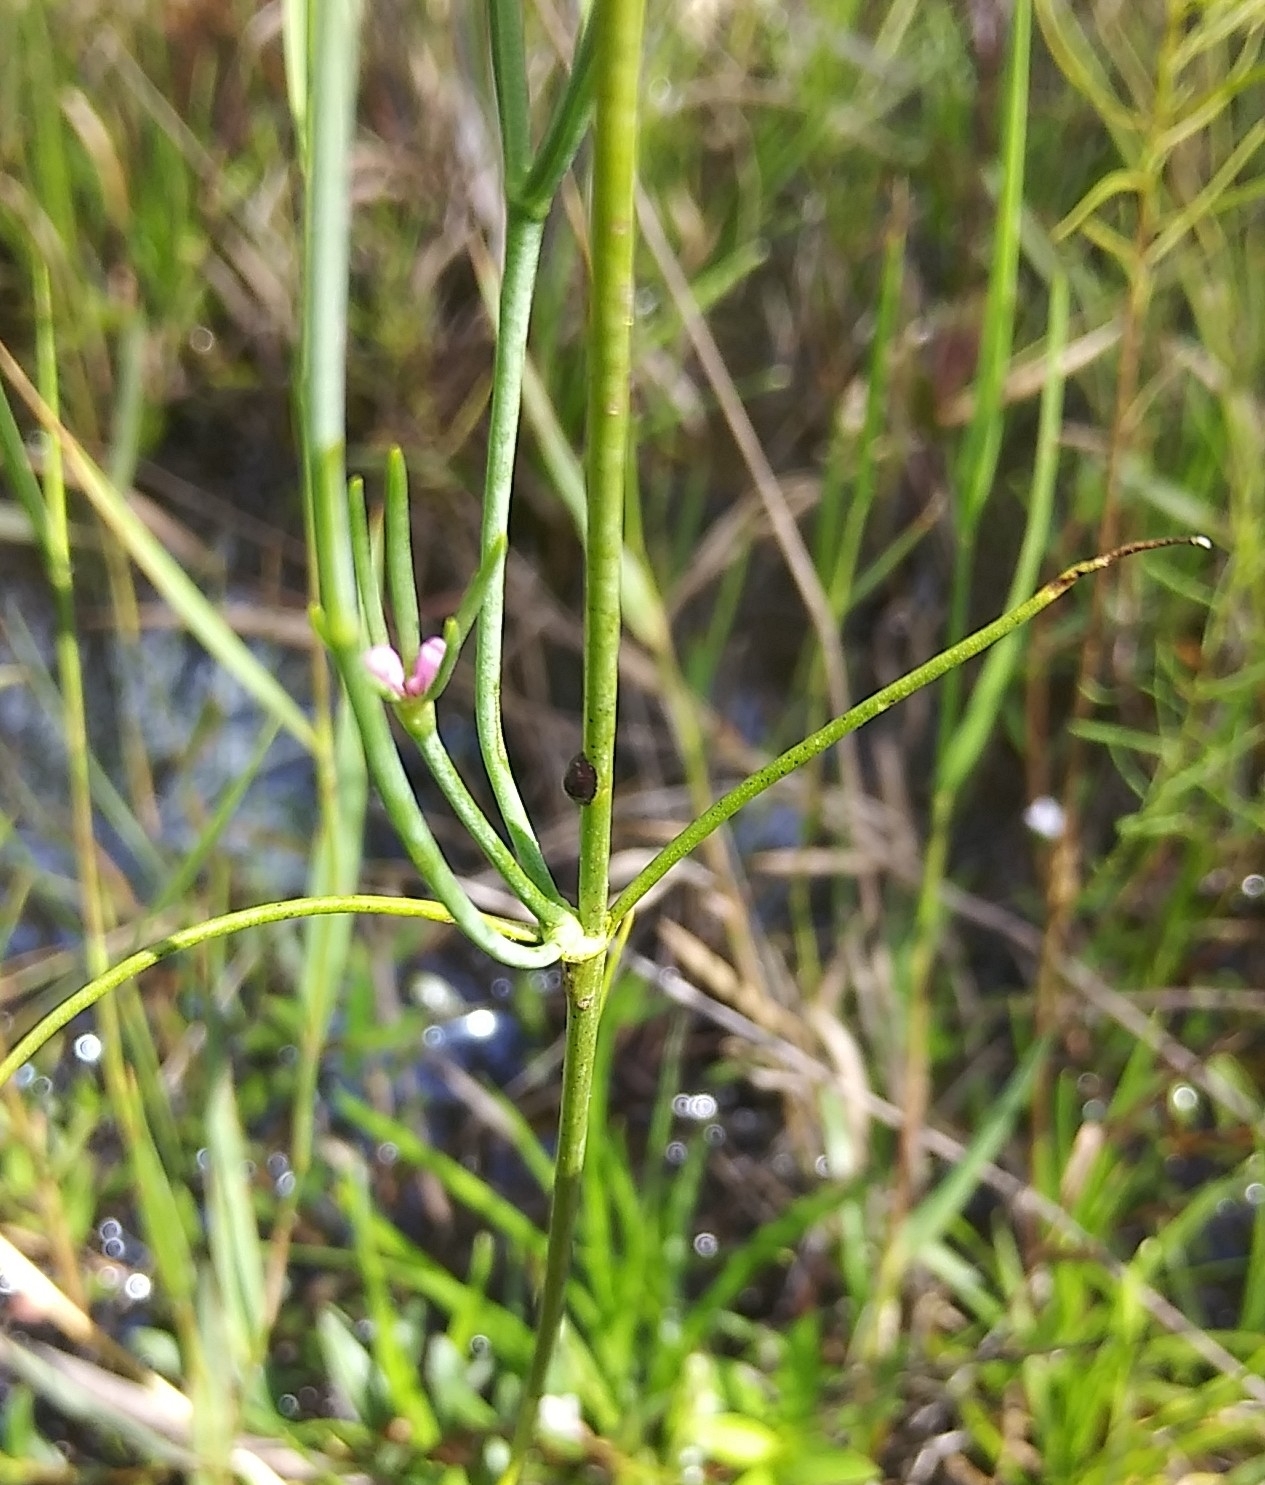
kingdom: Plantae
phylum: Tracheophyta
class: Magnoliopsida
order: Gentianales
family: Gentianaceae
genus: Sabatia
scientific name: Sabatia stellaris
